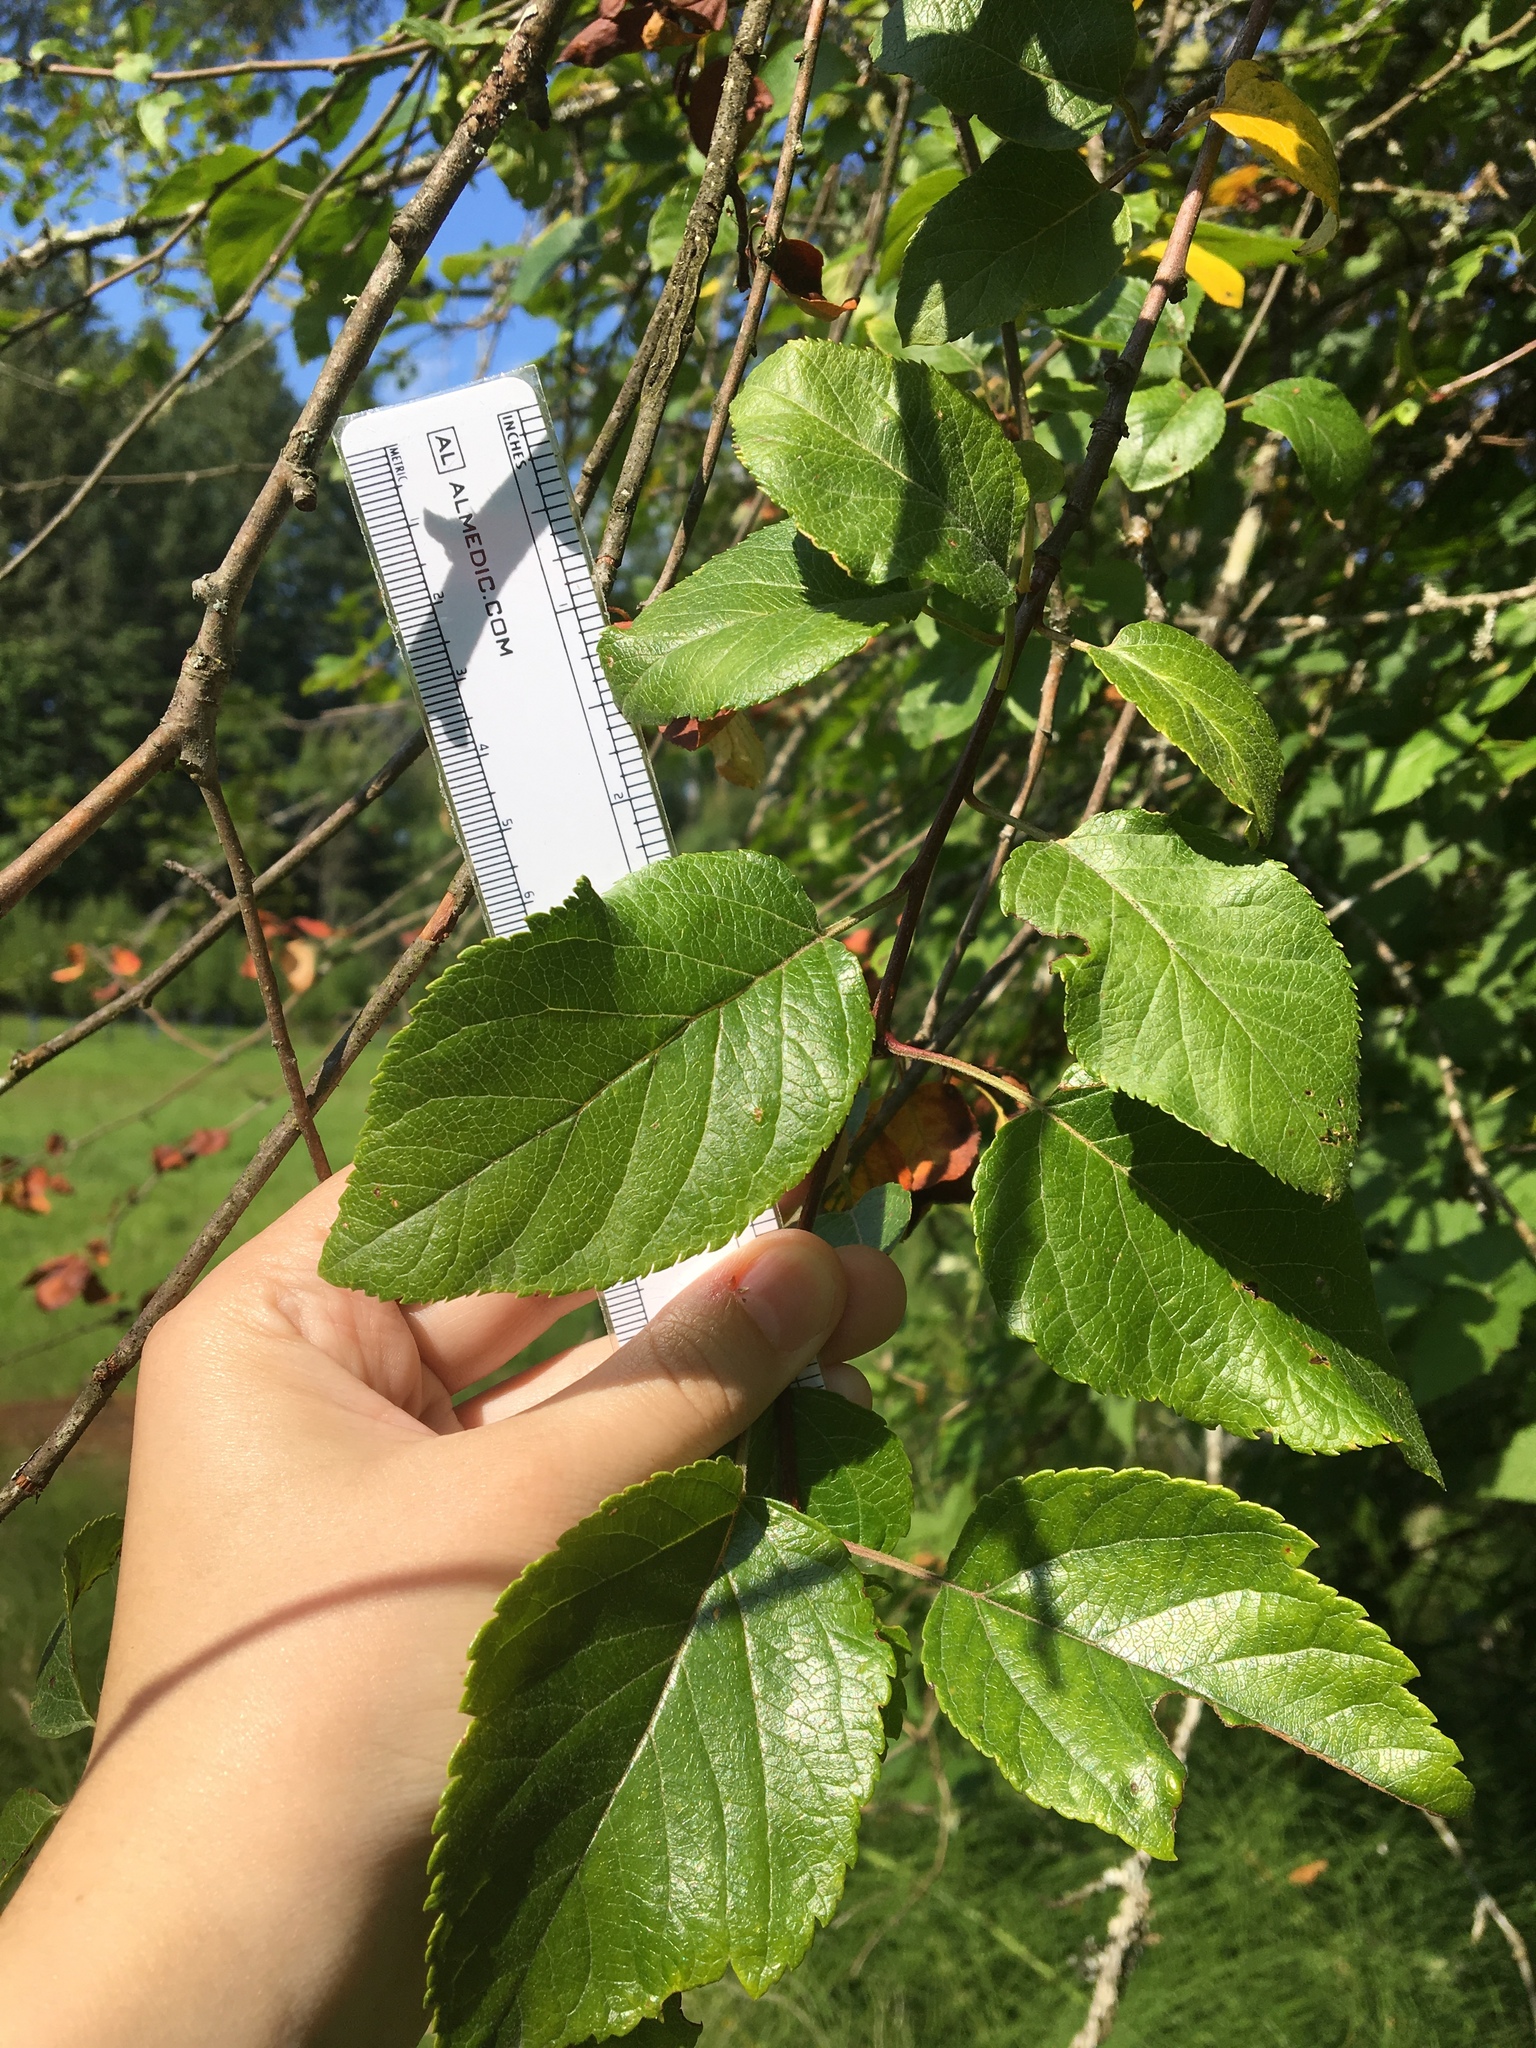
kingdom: Plantae
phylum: Tracheophyta
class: Magnoliopsida
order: Rosales
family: Rosaceae
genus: Malus
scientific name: Malus fusca
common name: Oregon crab apple
